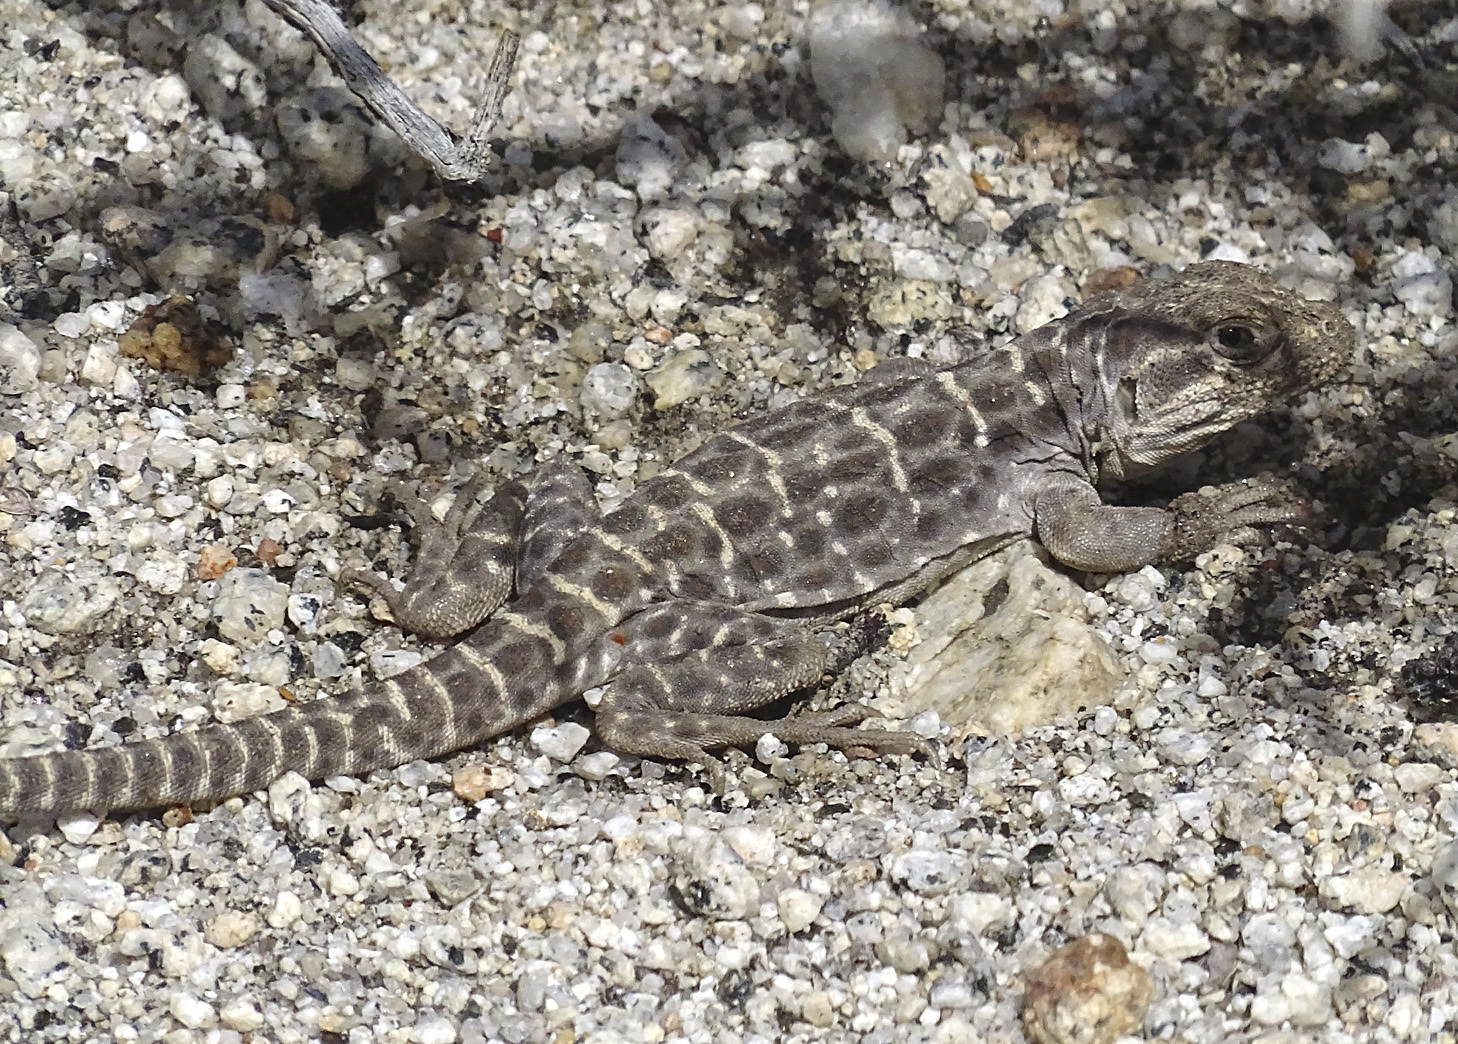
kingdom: Animalia
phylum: Chordata
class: Squamata
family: Crotaphytidae
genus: Gambelia
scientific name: Gambelia wislizenii
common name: Longnose leopard lizard
